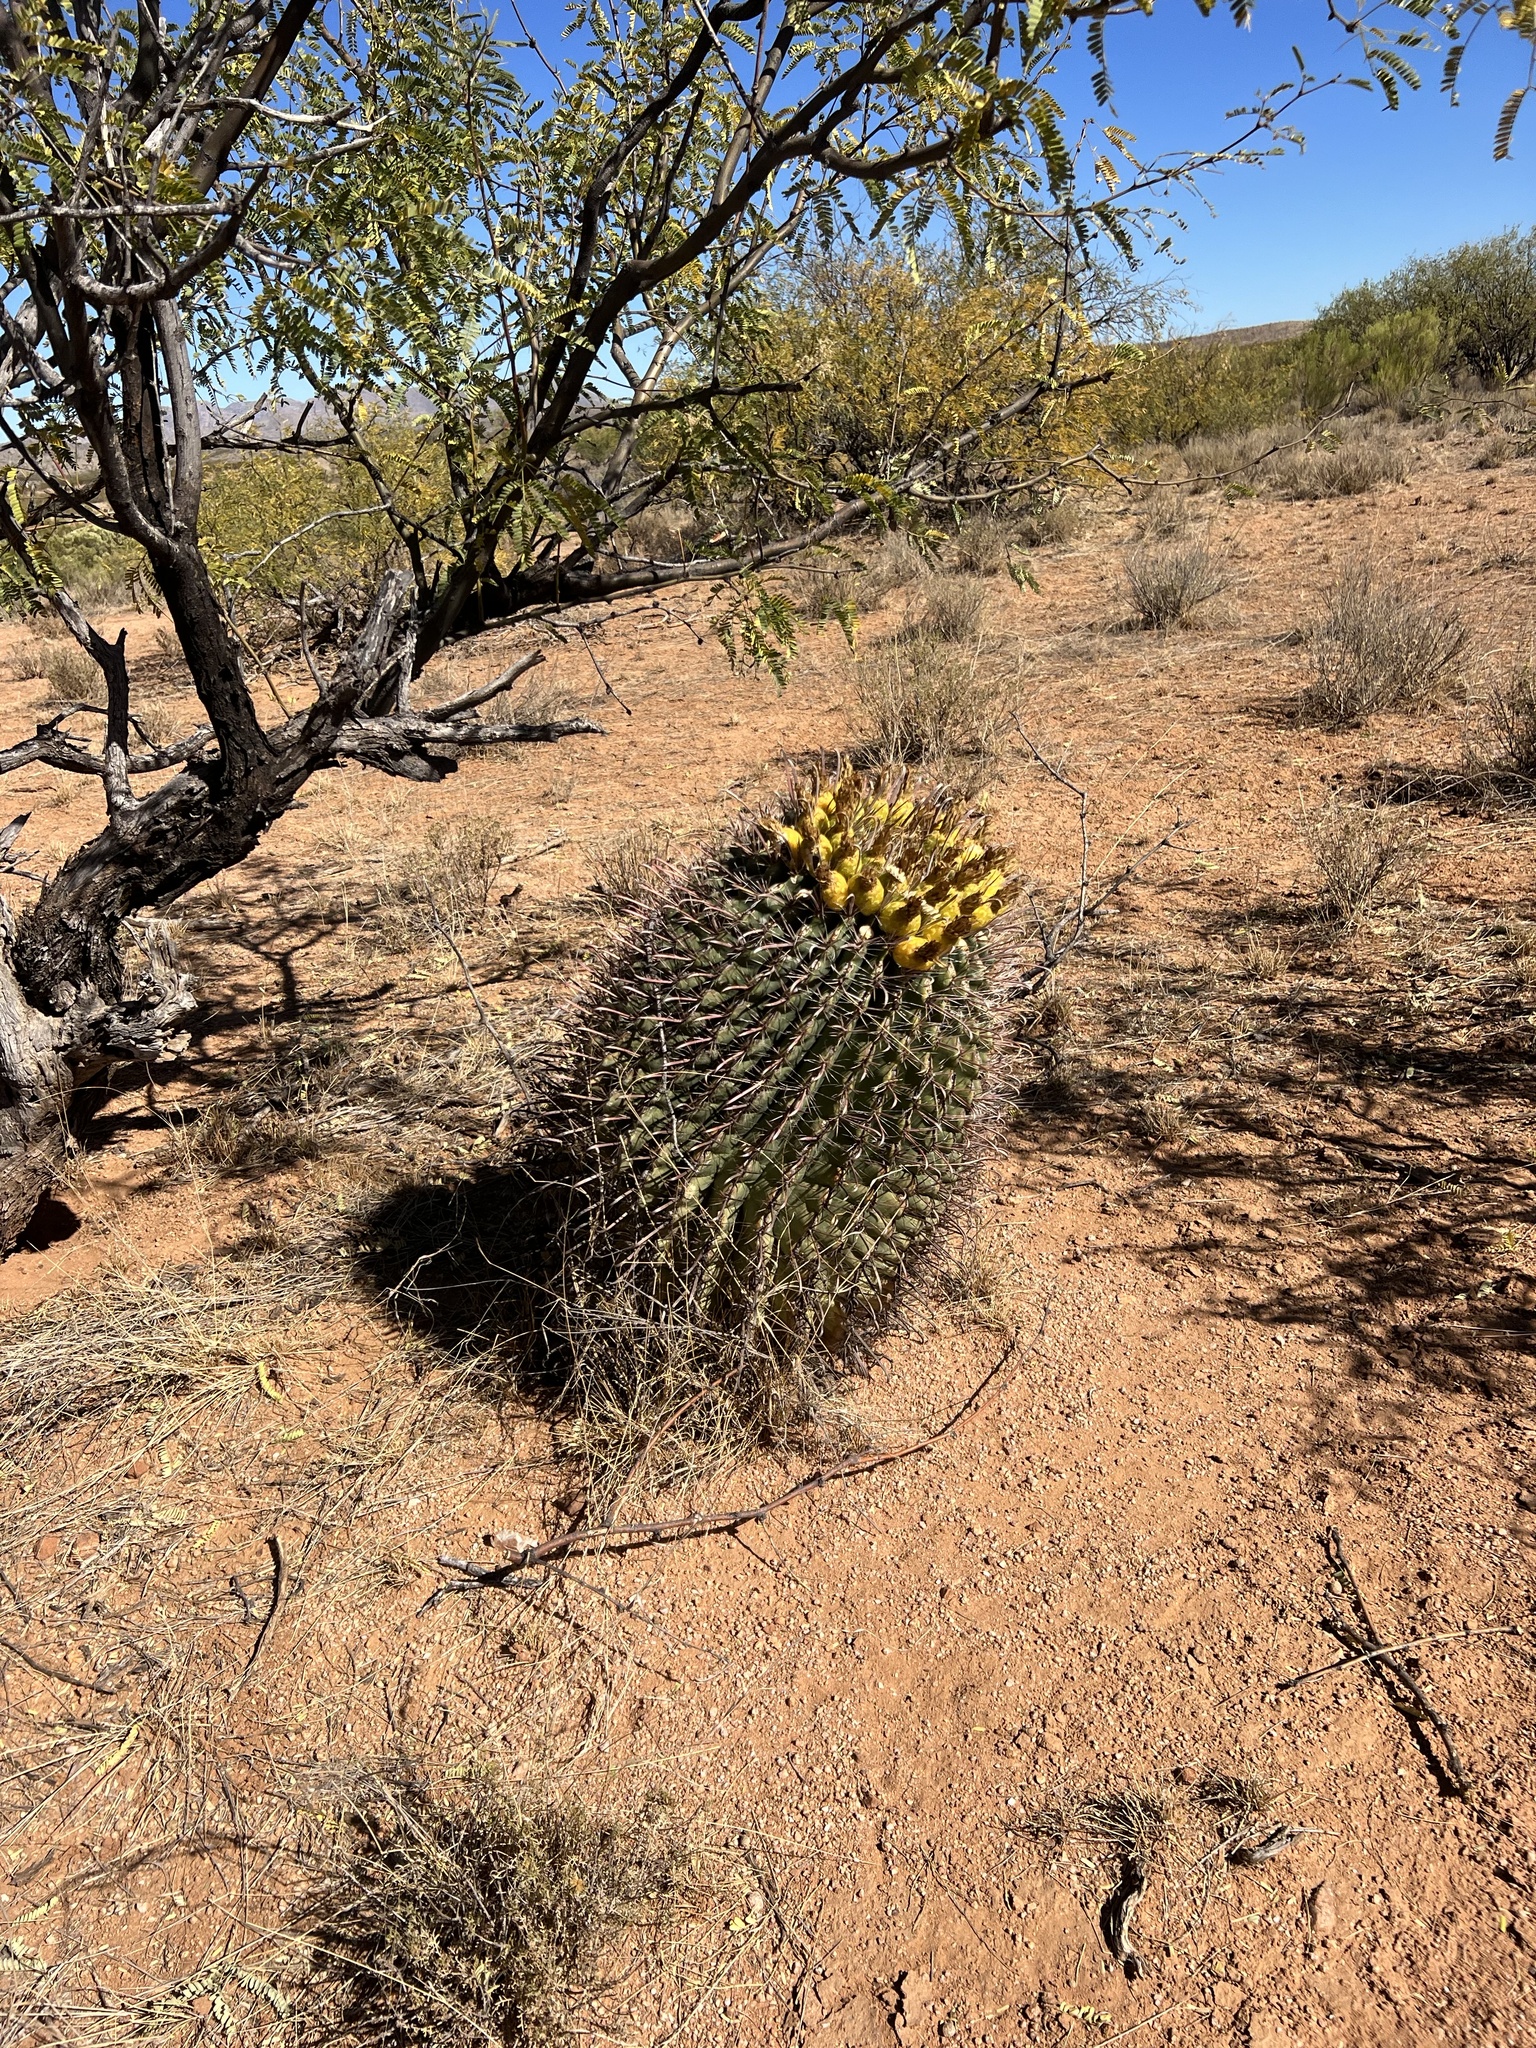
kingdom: Plantae
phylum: Tracheophyta
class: Magnoliopsida
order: Caryophyllales
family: Cactaceae
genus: Ferocactus
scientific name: Ferocactus wislizeni
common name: Candy barrel cactus
